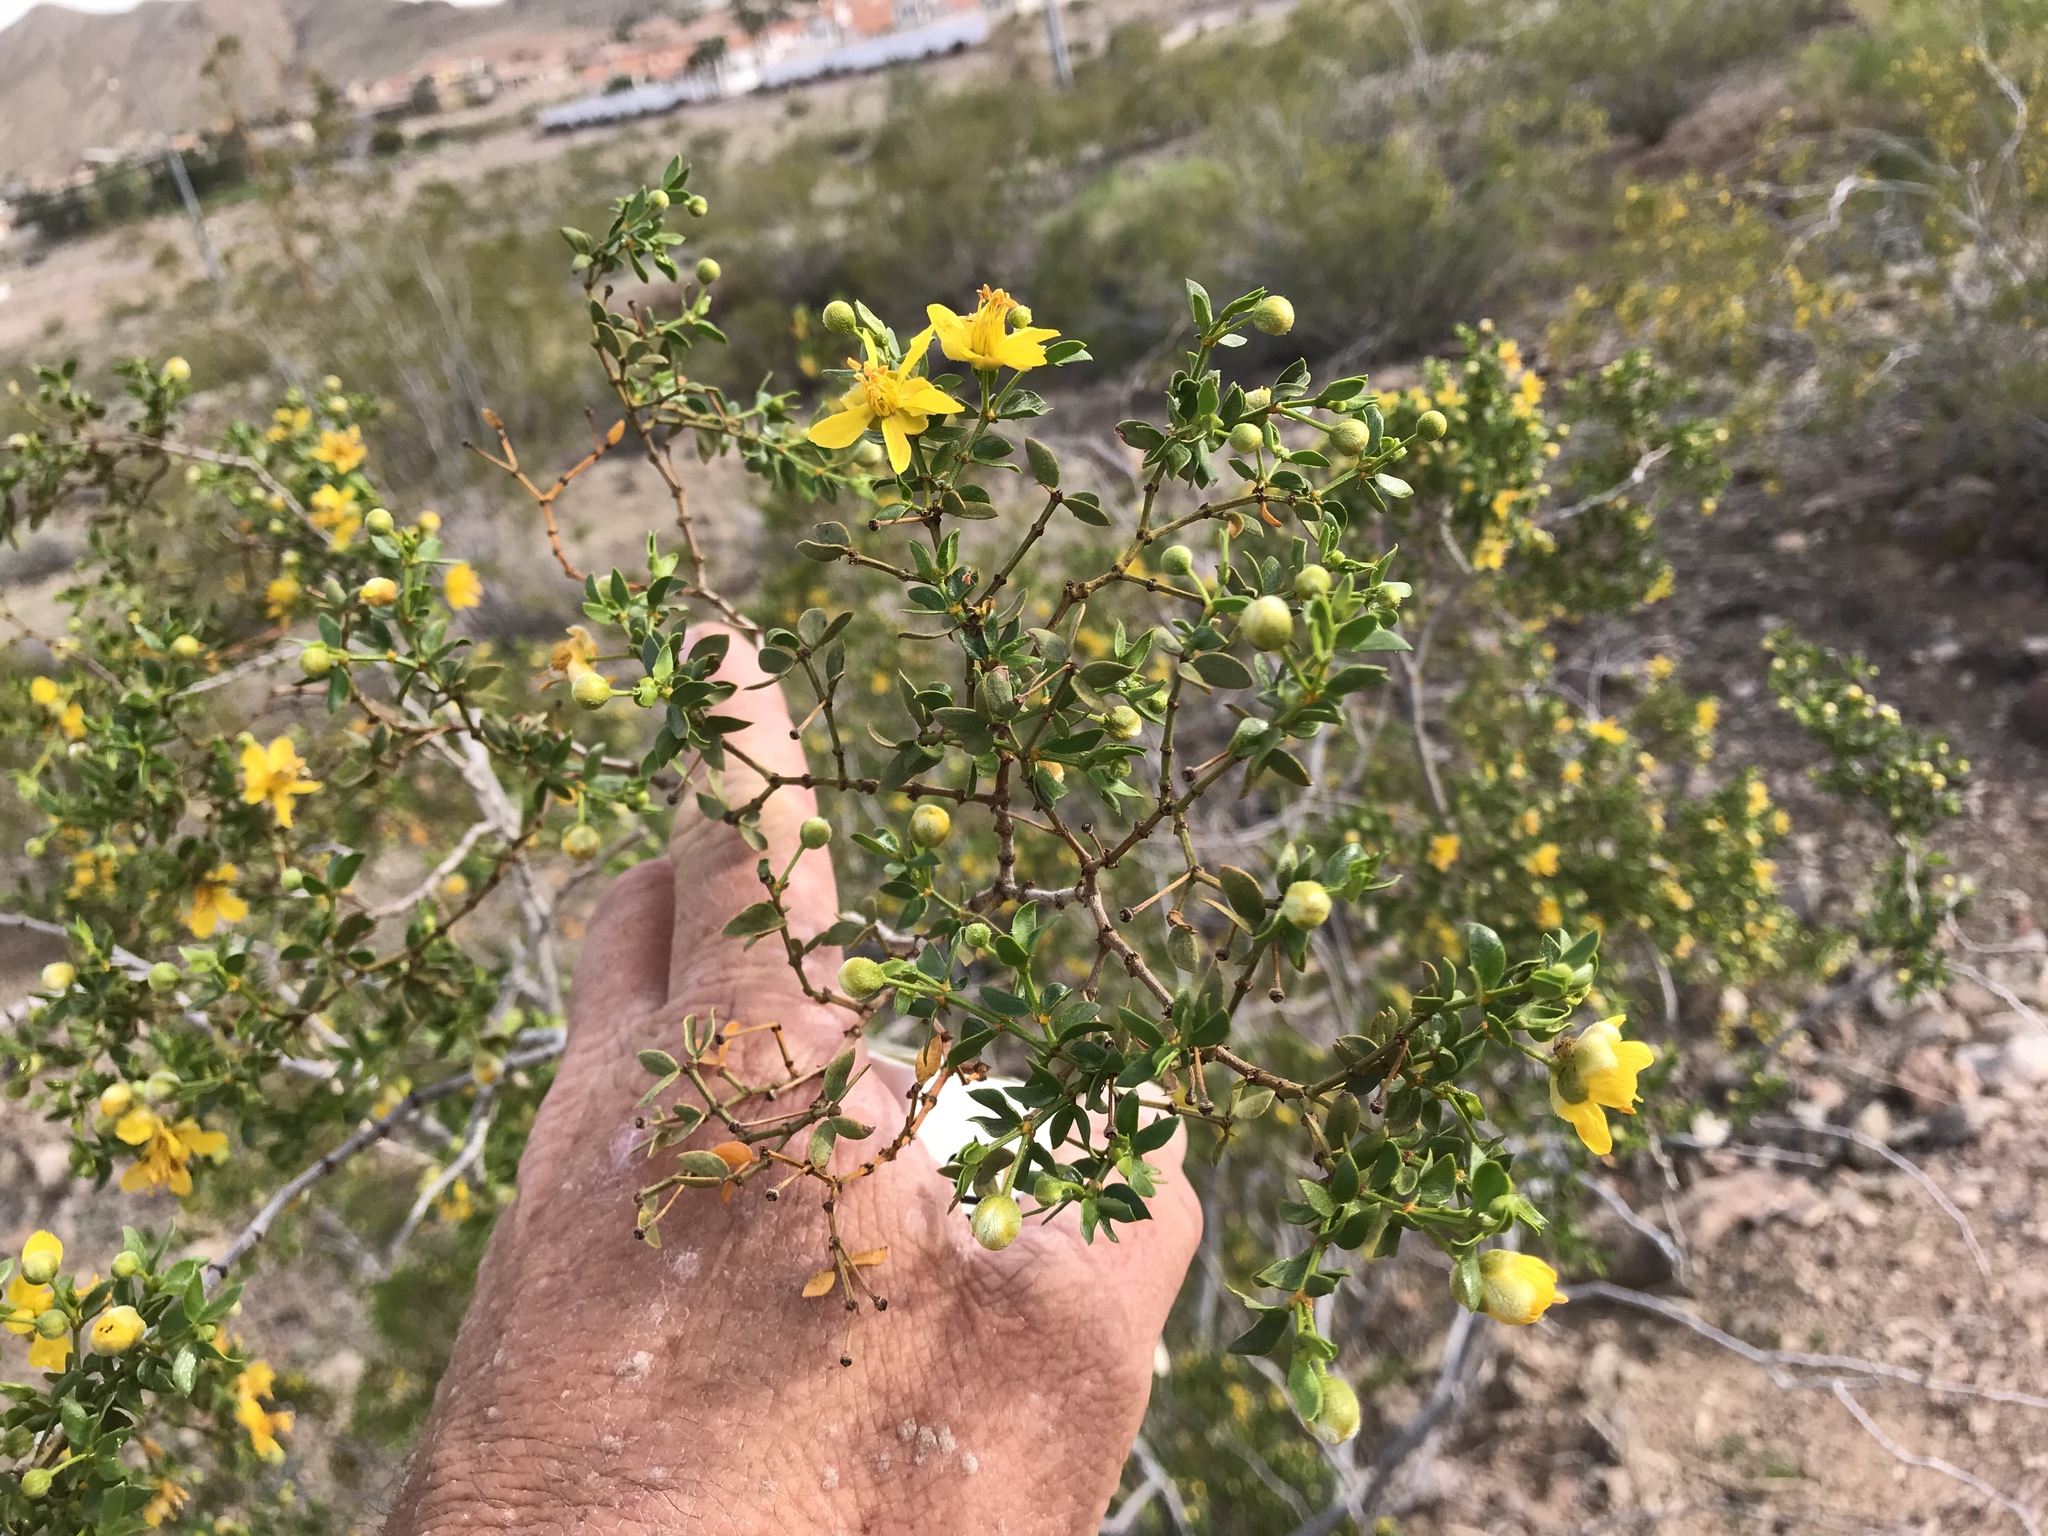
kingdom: Plantae
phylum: Tracheophyta
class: Magnoliopsida
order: Zygophyllales
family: Zygophyllaceae
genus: Larrea
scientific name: Larrea tridentata
